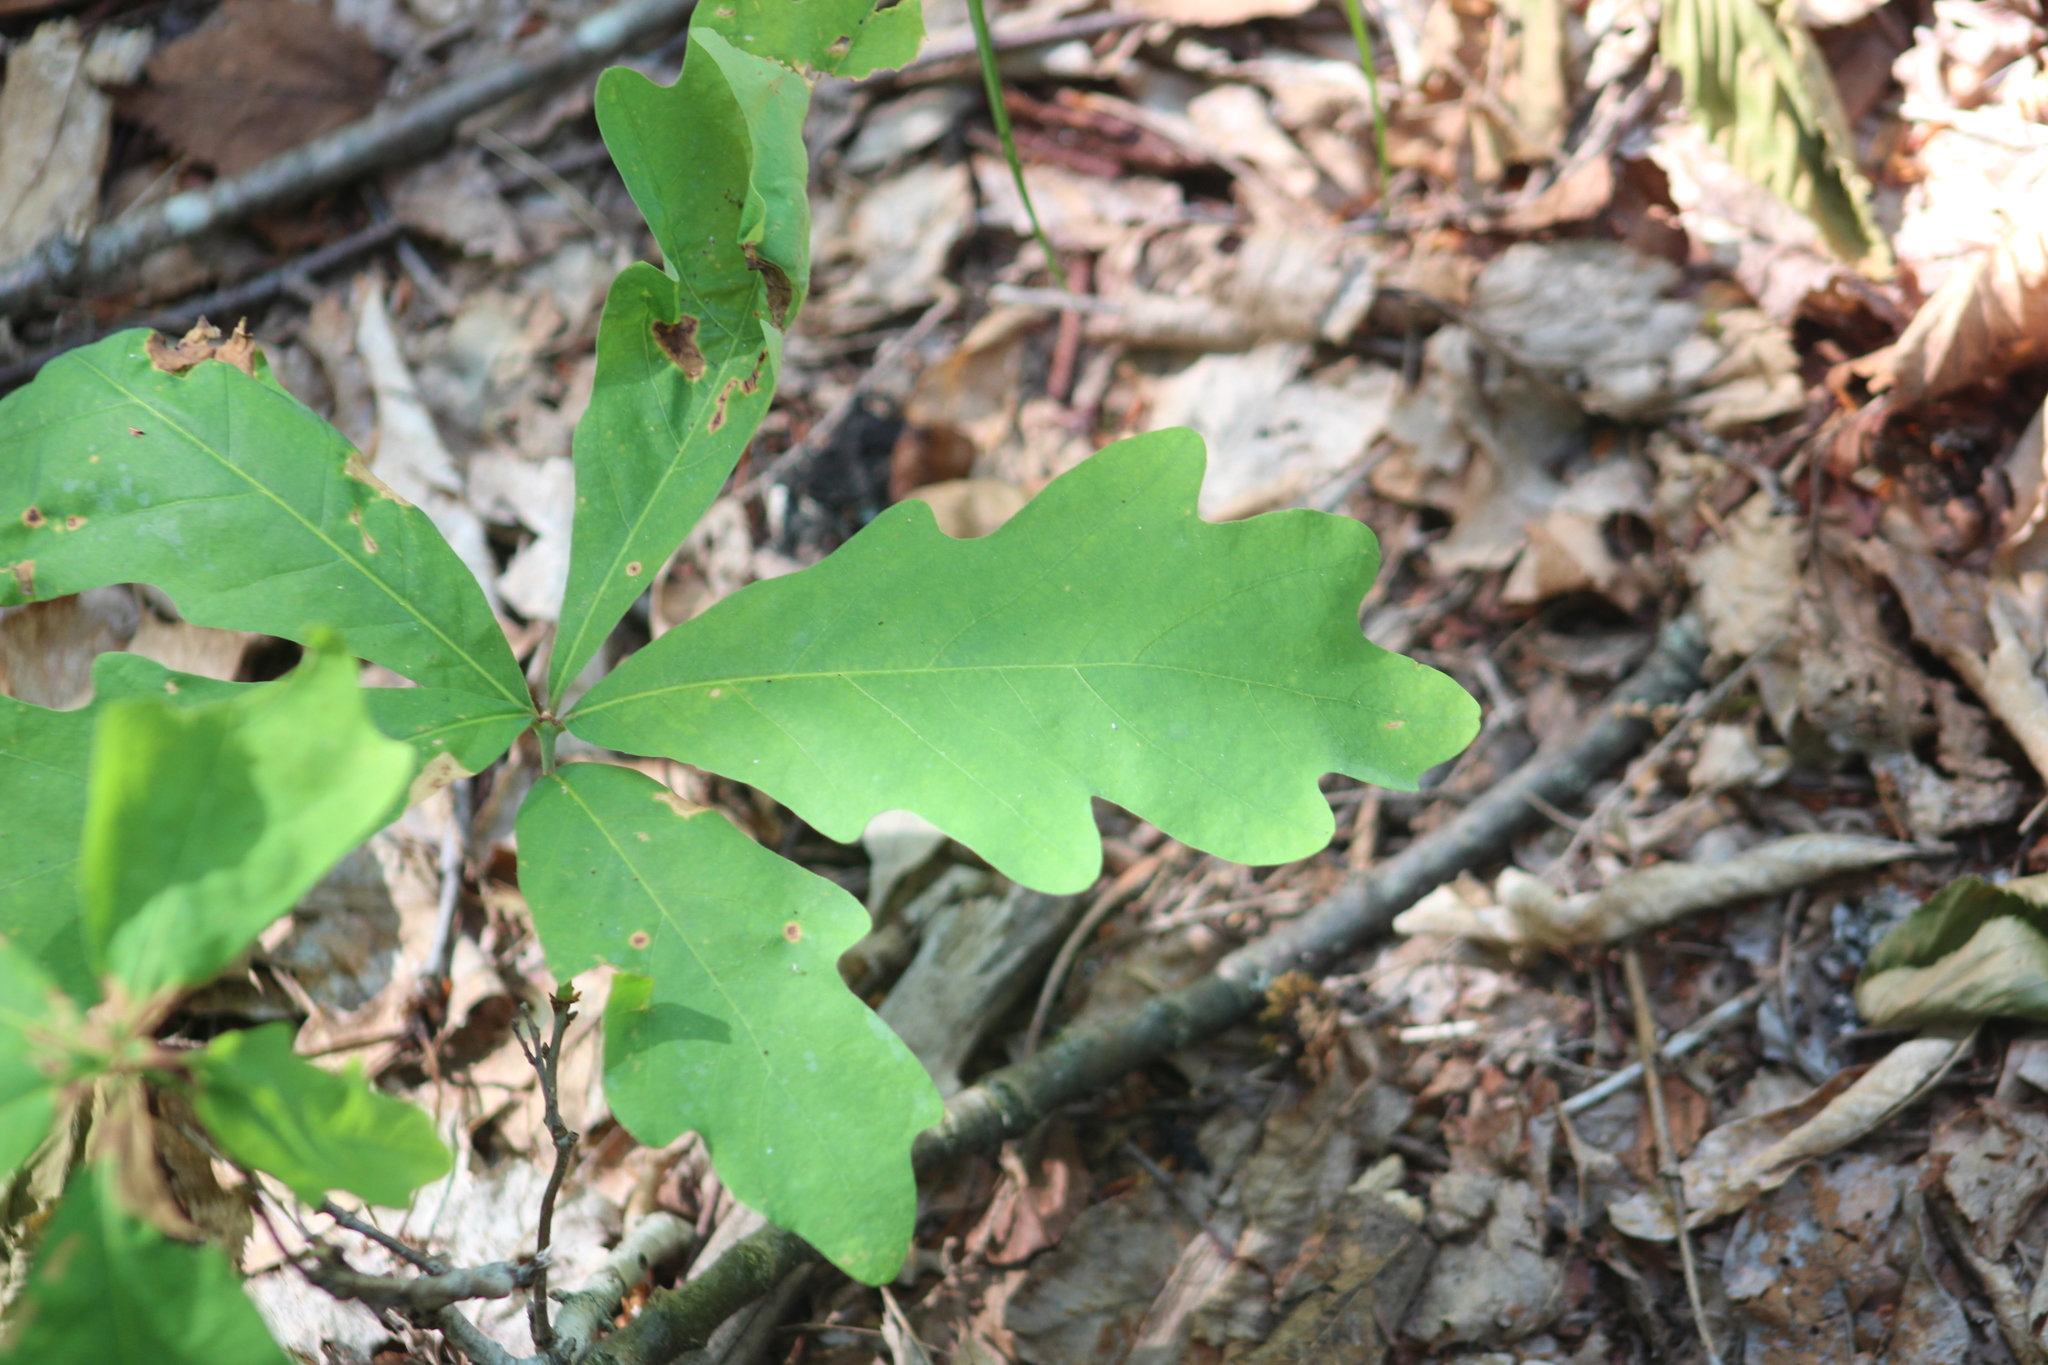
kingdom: Plantae
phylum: Tracheophyta
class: Magnoliopsida
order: Fagales
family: Fagaceae
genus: Quercus
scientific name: Quercus alba
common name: White oak
